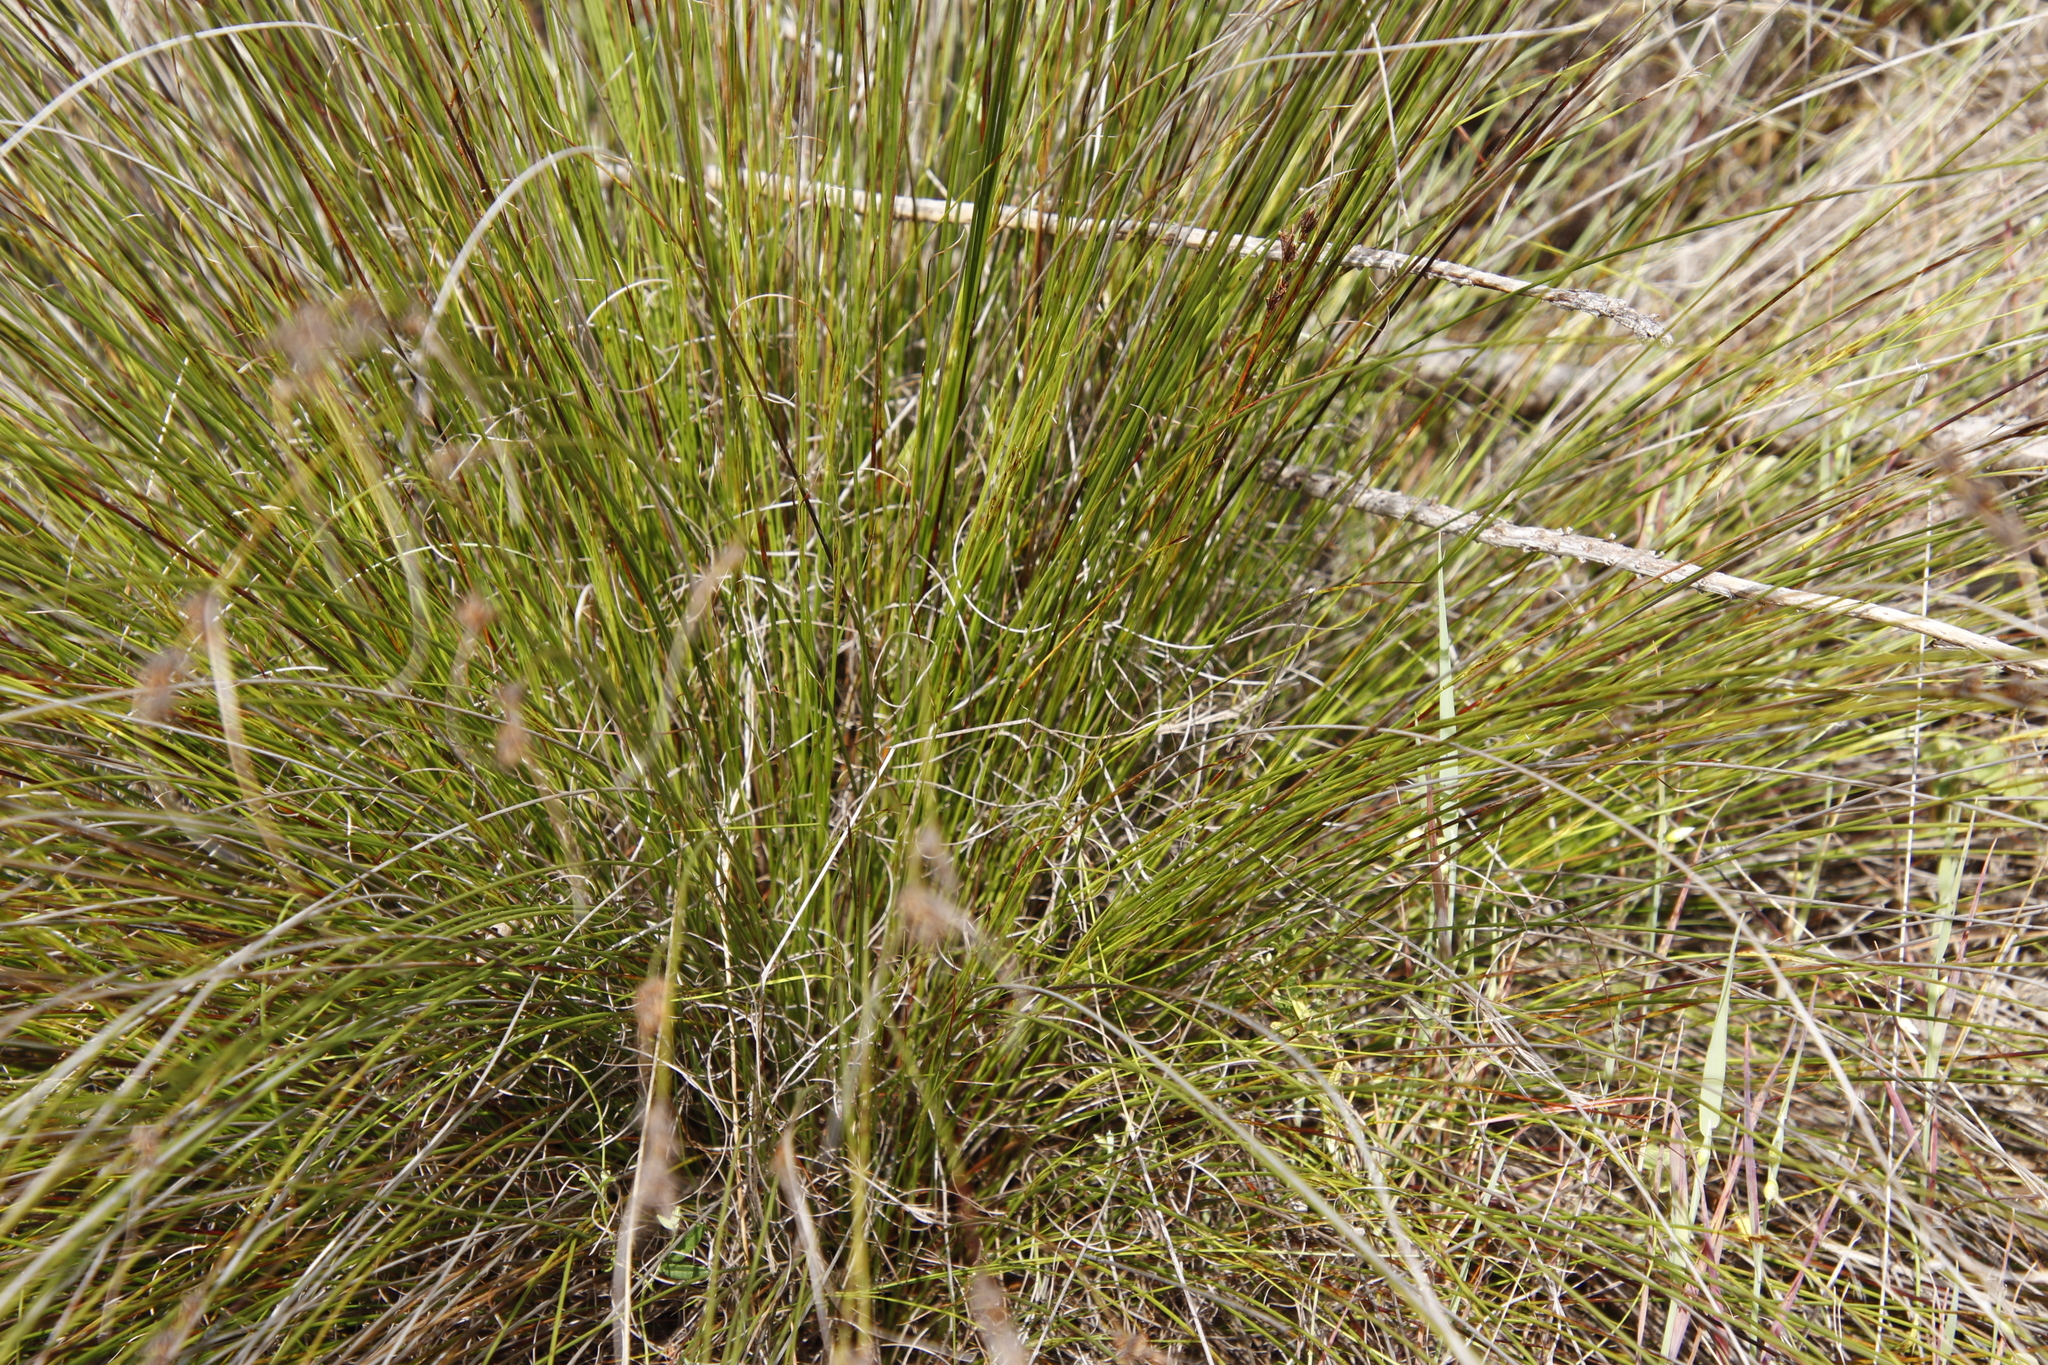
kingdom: Plantae
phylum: Tracheophyta
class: Liliopsida
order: Poales
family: Cyperaceae
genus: Schoenus
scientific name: Schoenus cuspidatus
